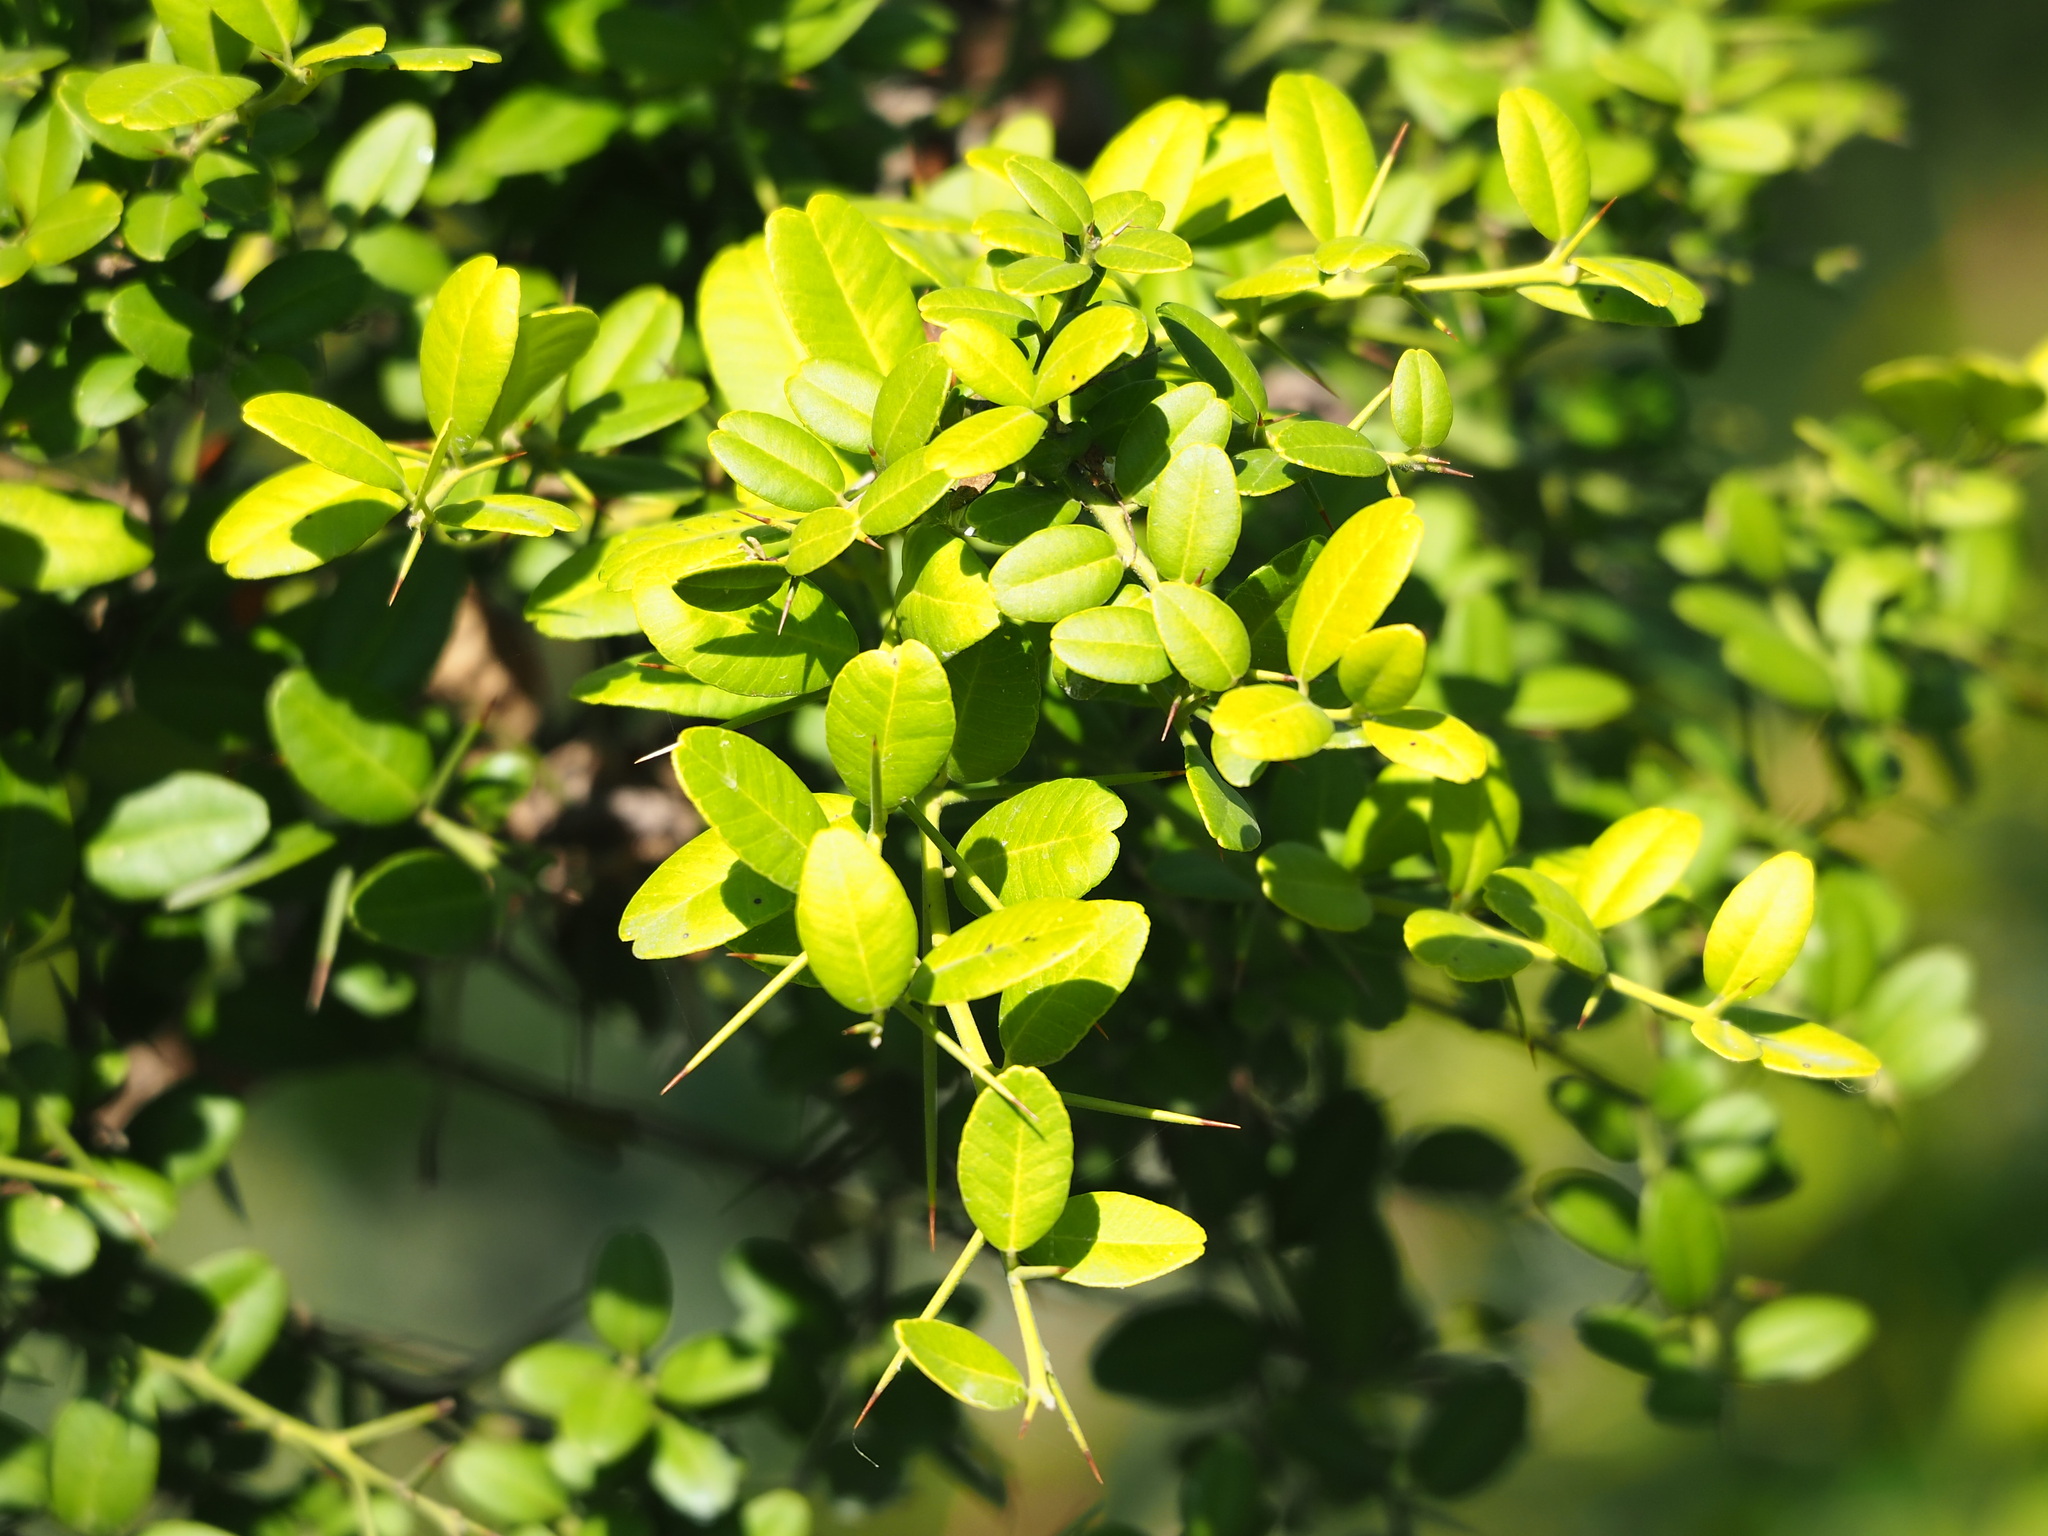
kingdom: Plantae
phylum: Tracheophyta
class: Magnoliopsida
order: Sapindales
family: Rutaceae
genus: Atalantia
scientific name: Atalantia buxifolia
